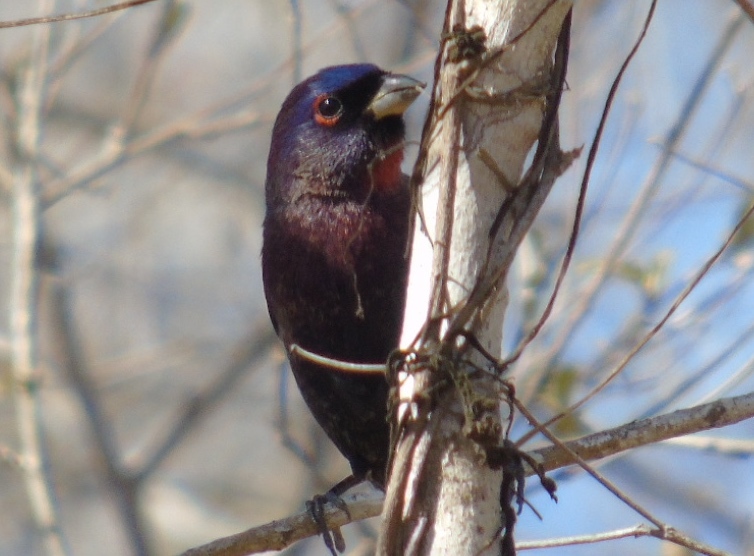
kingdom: Animalia
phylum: Chordata
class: Aves
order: Passeriformes
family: Cardinalidae
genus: Passerina
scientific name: Passerina versicolor
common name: Varied bunting
